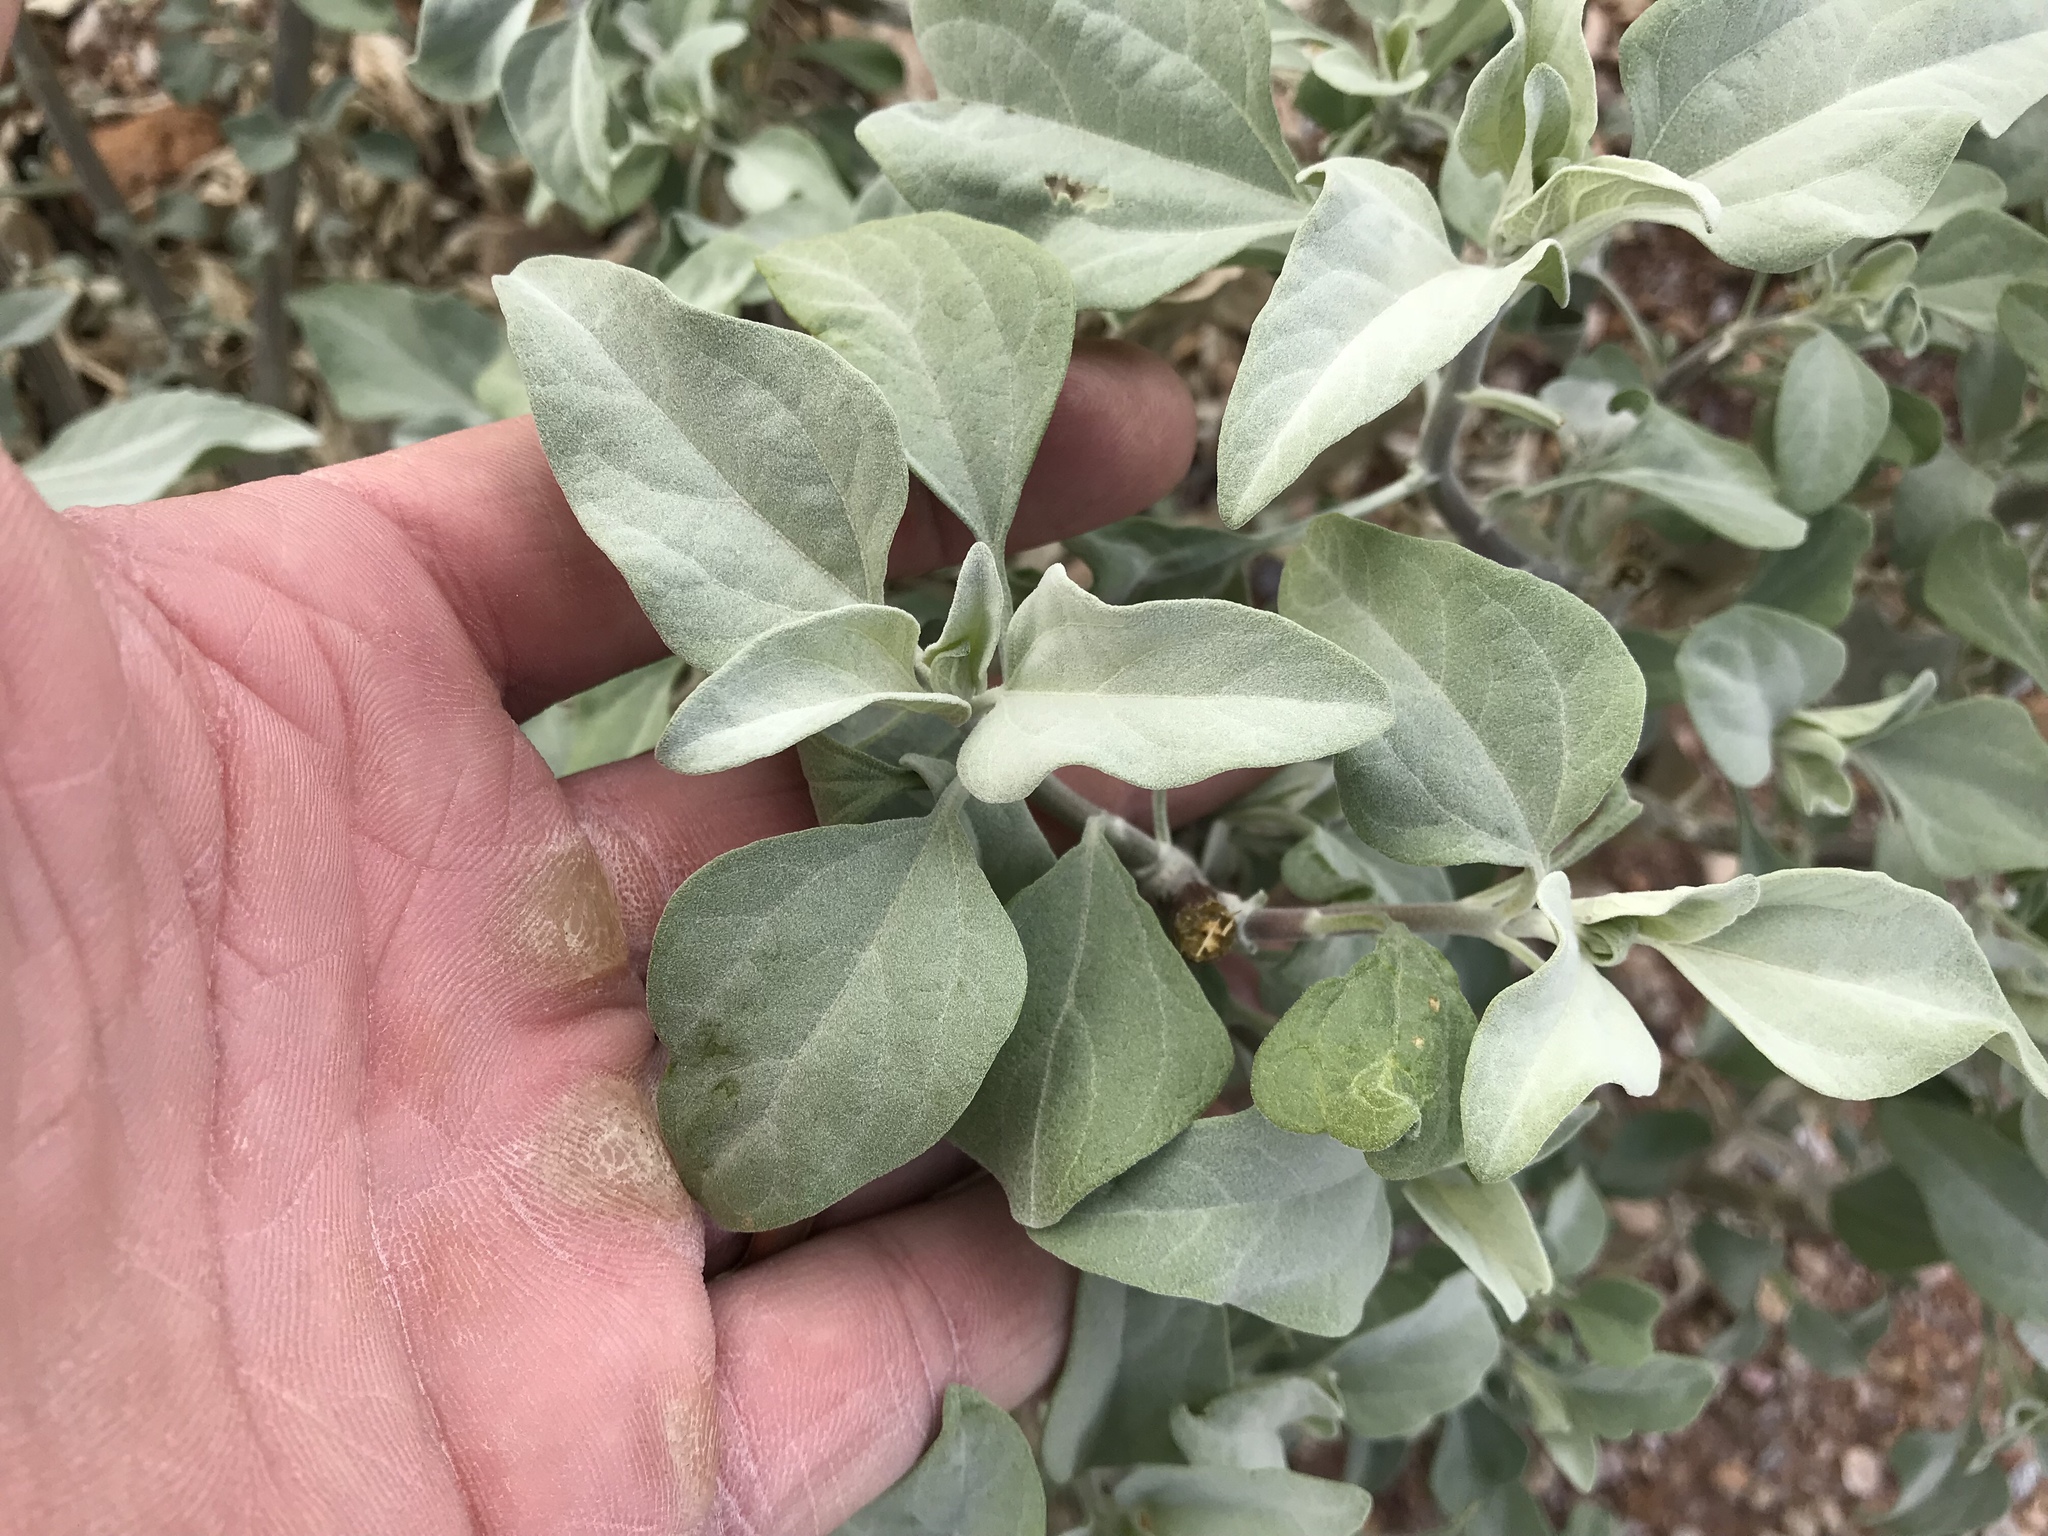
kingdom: Plantae
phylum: Tracheophyta
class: Magnoliopsida
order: Asterales
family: Asteraceae
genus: Encelia
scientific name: Encelia farinosa
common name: Brittlebush
